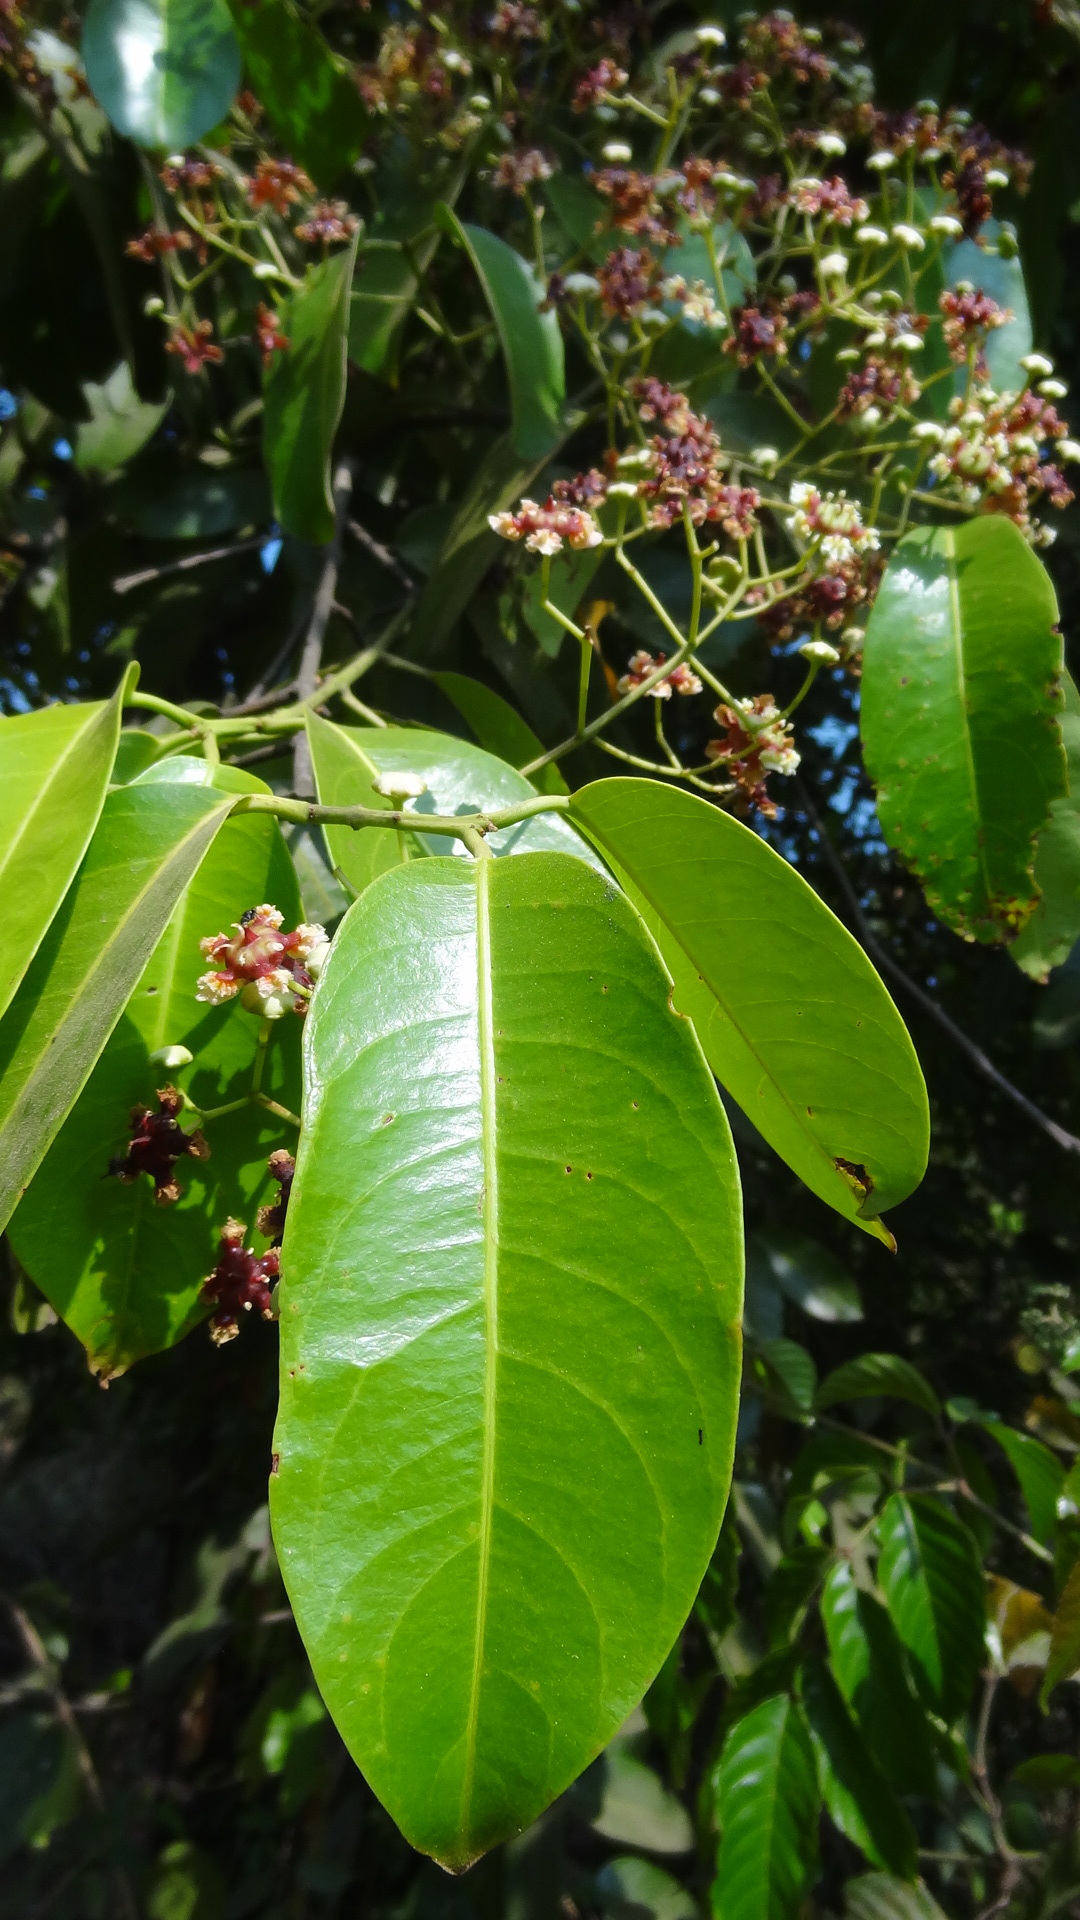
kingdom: Plantae
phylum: Tracheophyta
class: Magnoliopsida
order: Celastrales
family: Celastraceae
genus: Lophopetalum
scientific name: Lophopetalum wightianum
